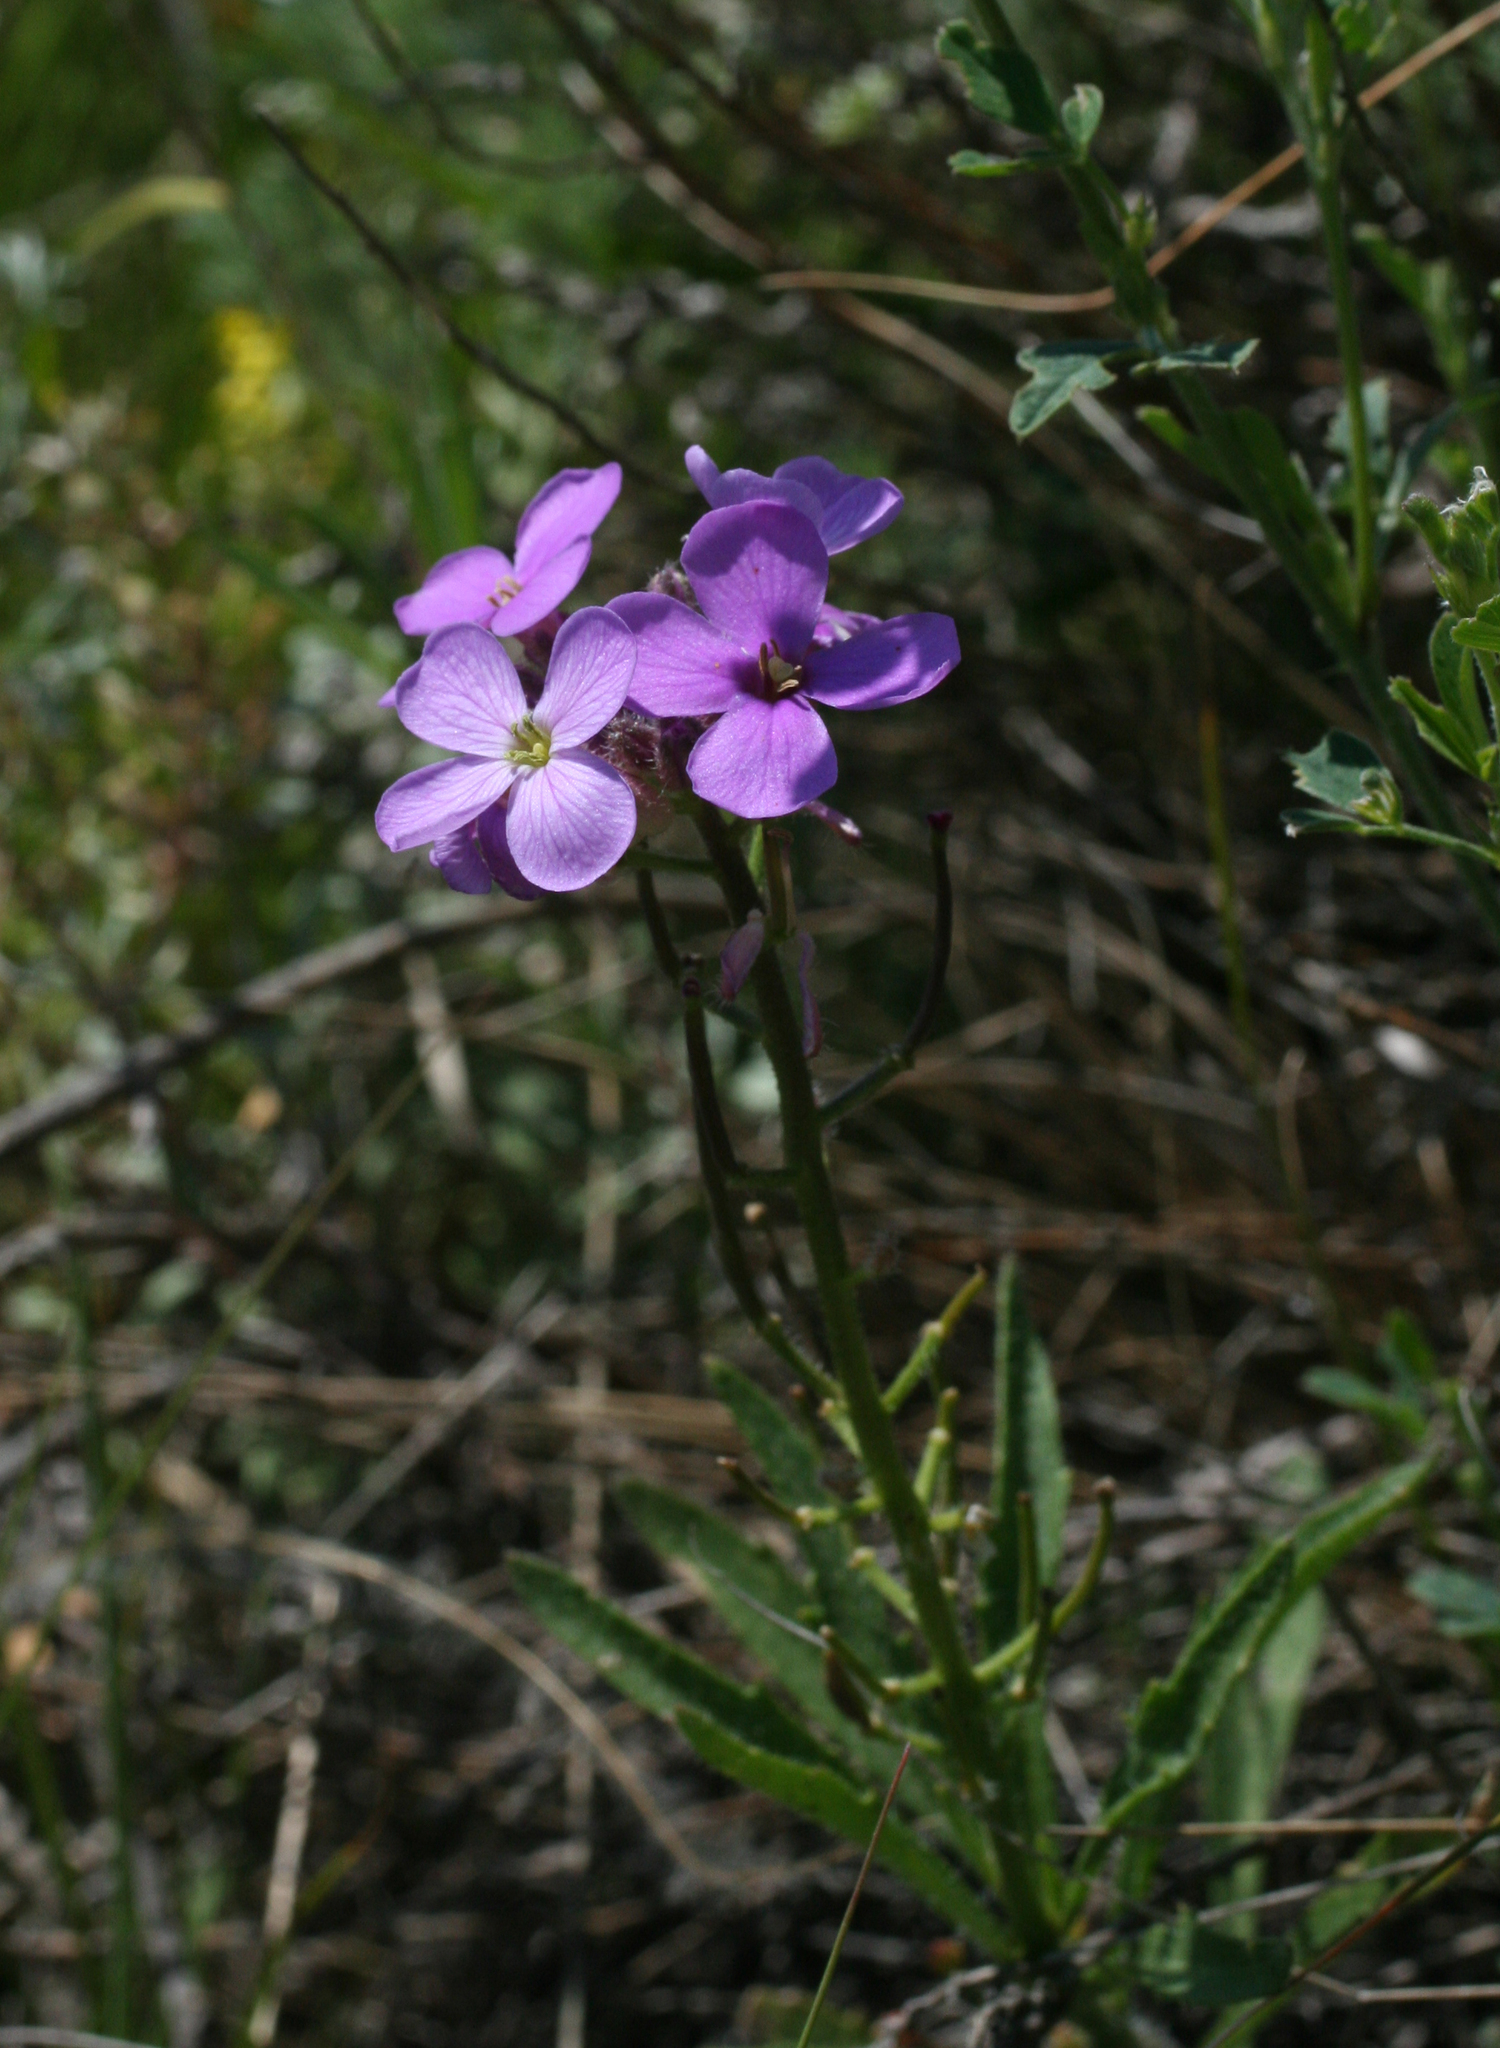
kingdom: Plantae
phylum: Tracheophyta
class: Magnoliopsida
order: Brassicales
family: Brassicaceae
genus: Clausia
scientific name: Clausia aprica
